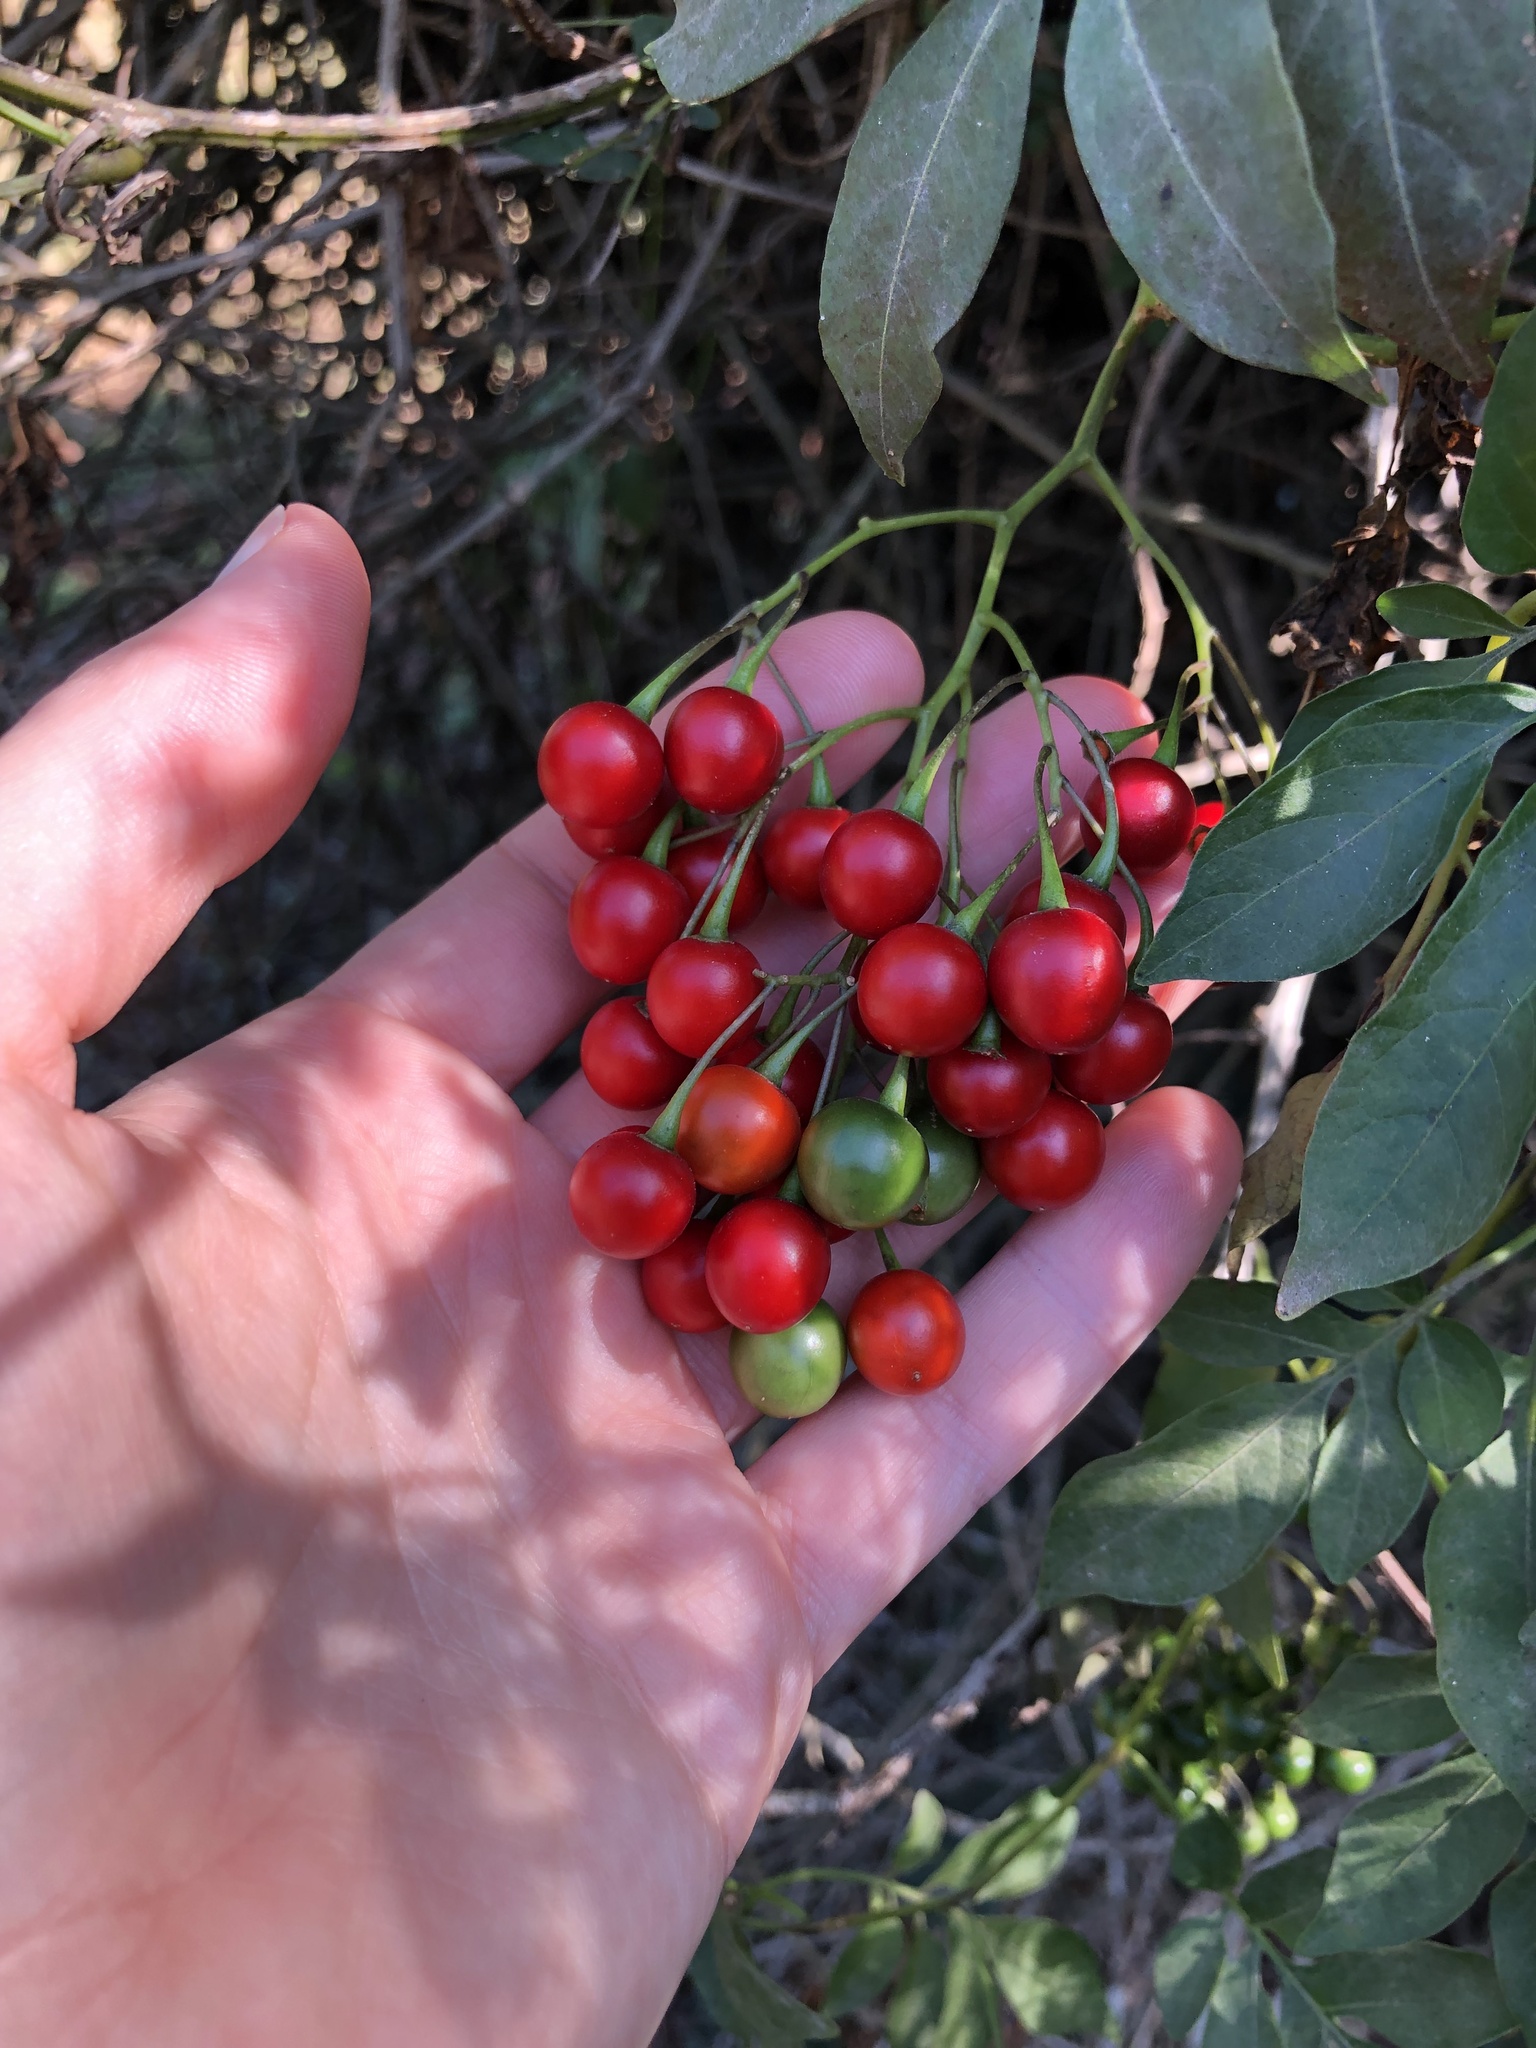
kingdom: Plantae
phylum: Tracheophyta
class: Magnoliopsida
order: Solanales
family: Solanaceae
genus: Solanum
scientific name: Solanum seaforthianum
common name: Brazilian nightshade
